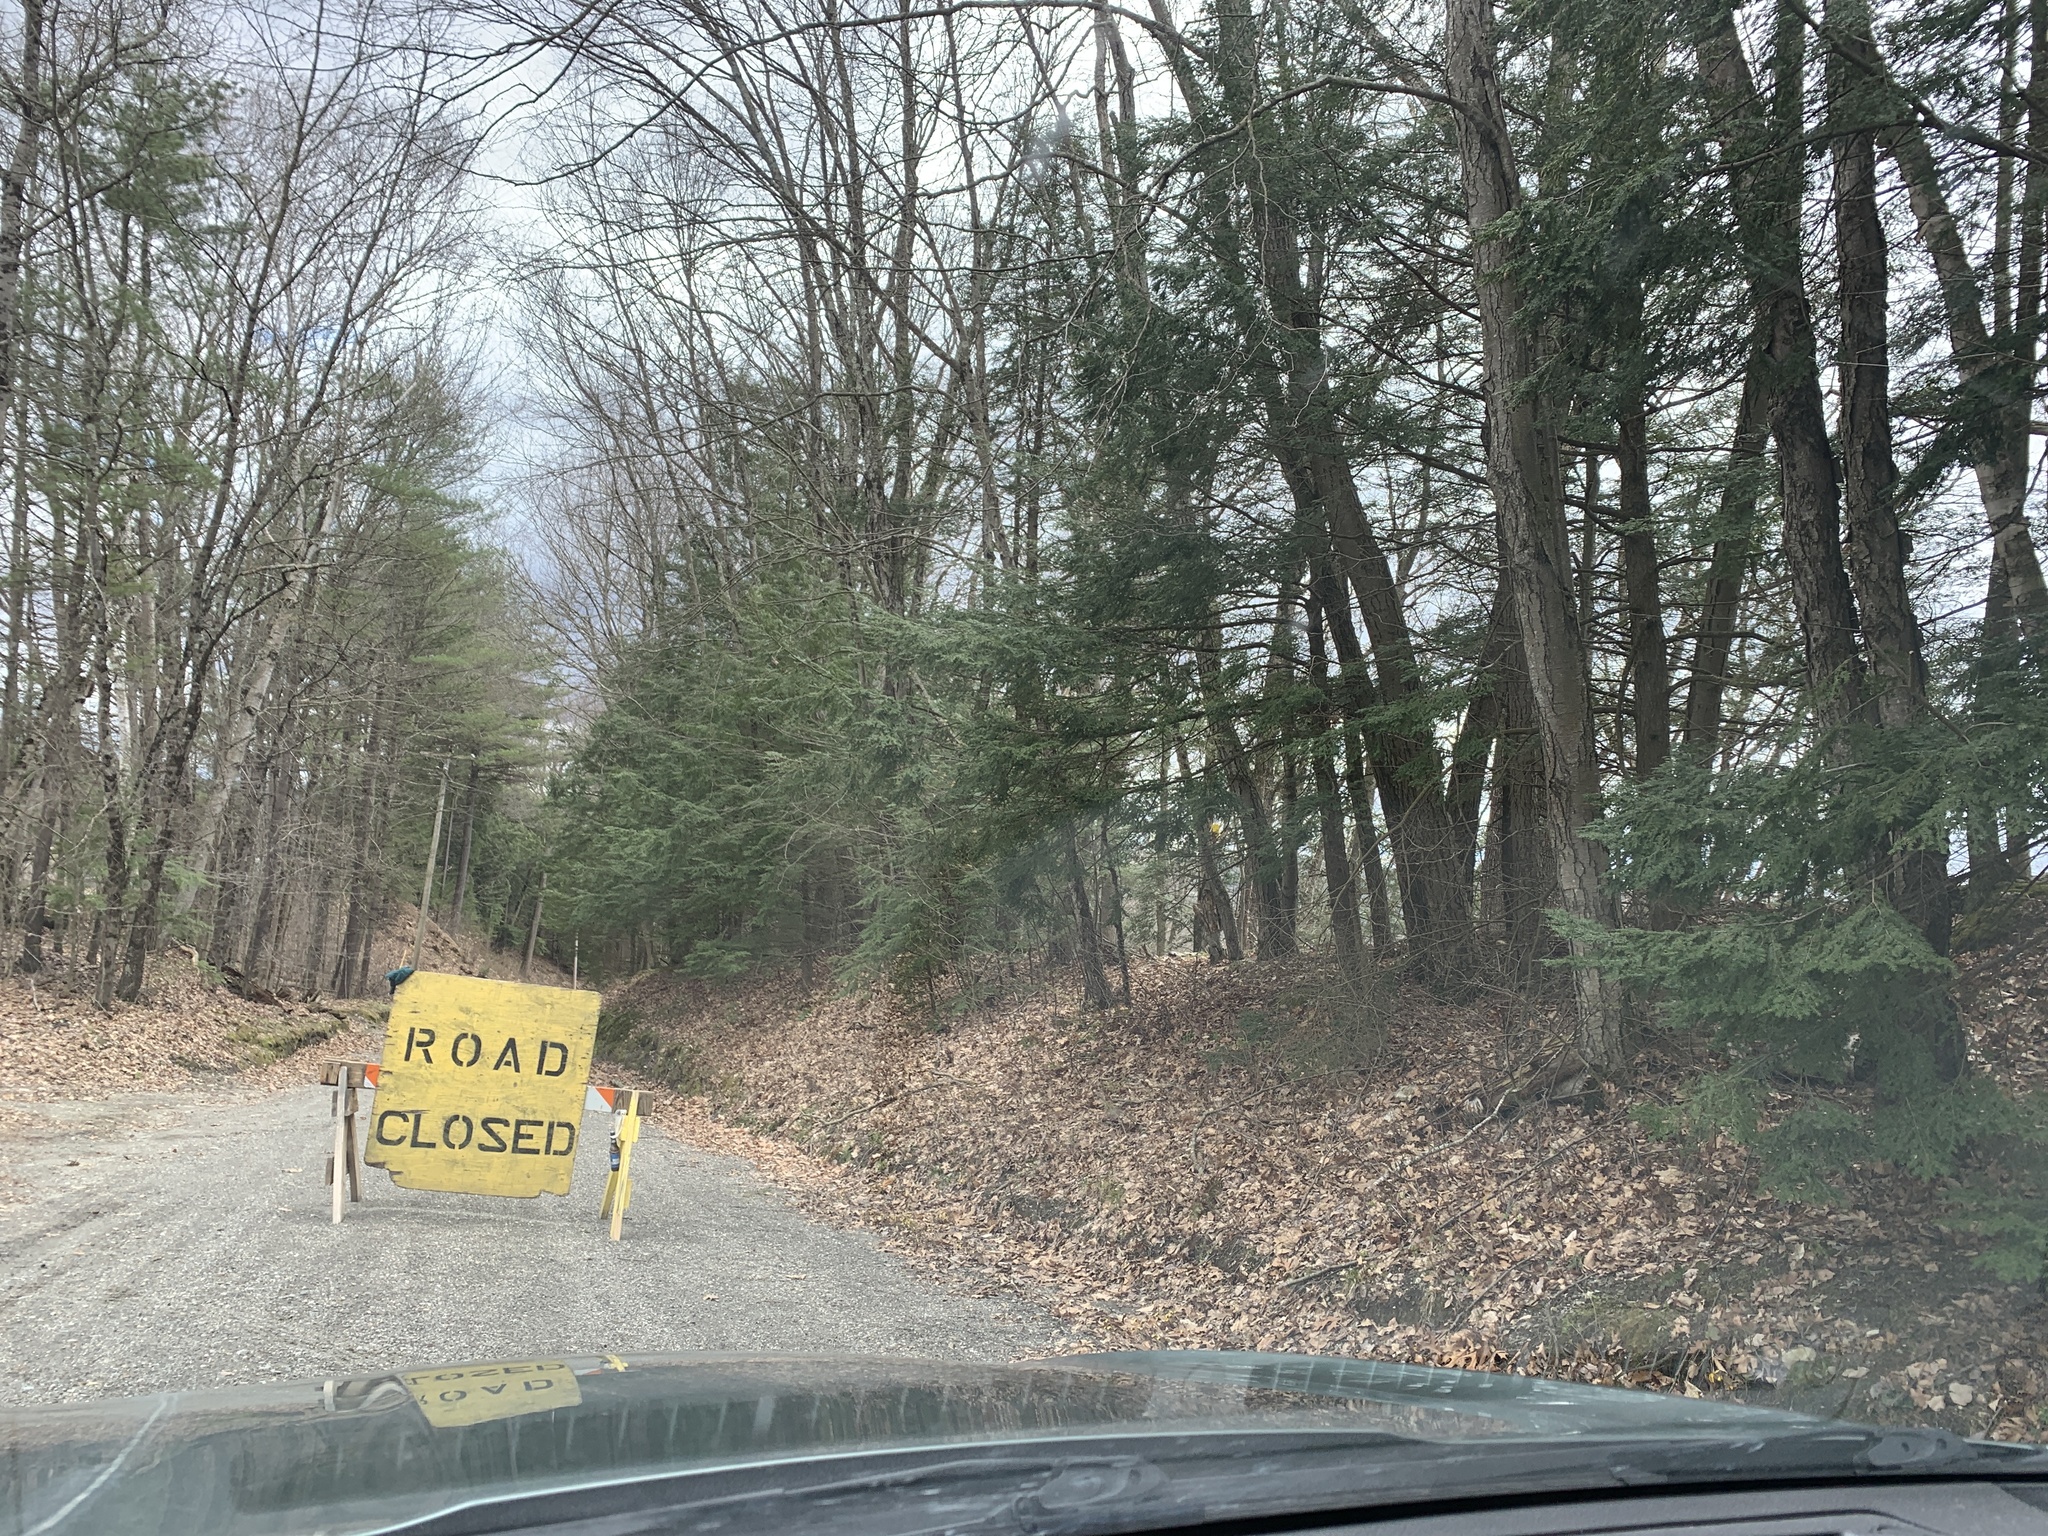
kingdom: Plantae
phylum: Tracheophyta
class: Pinopsida
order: Pinales
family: Pinaceae
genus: Tsuga
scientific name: Tsuga canadensis
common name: Eastern hemlock
